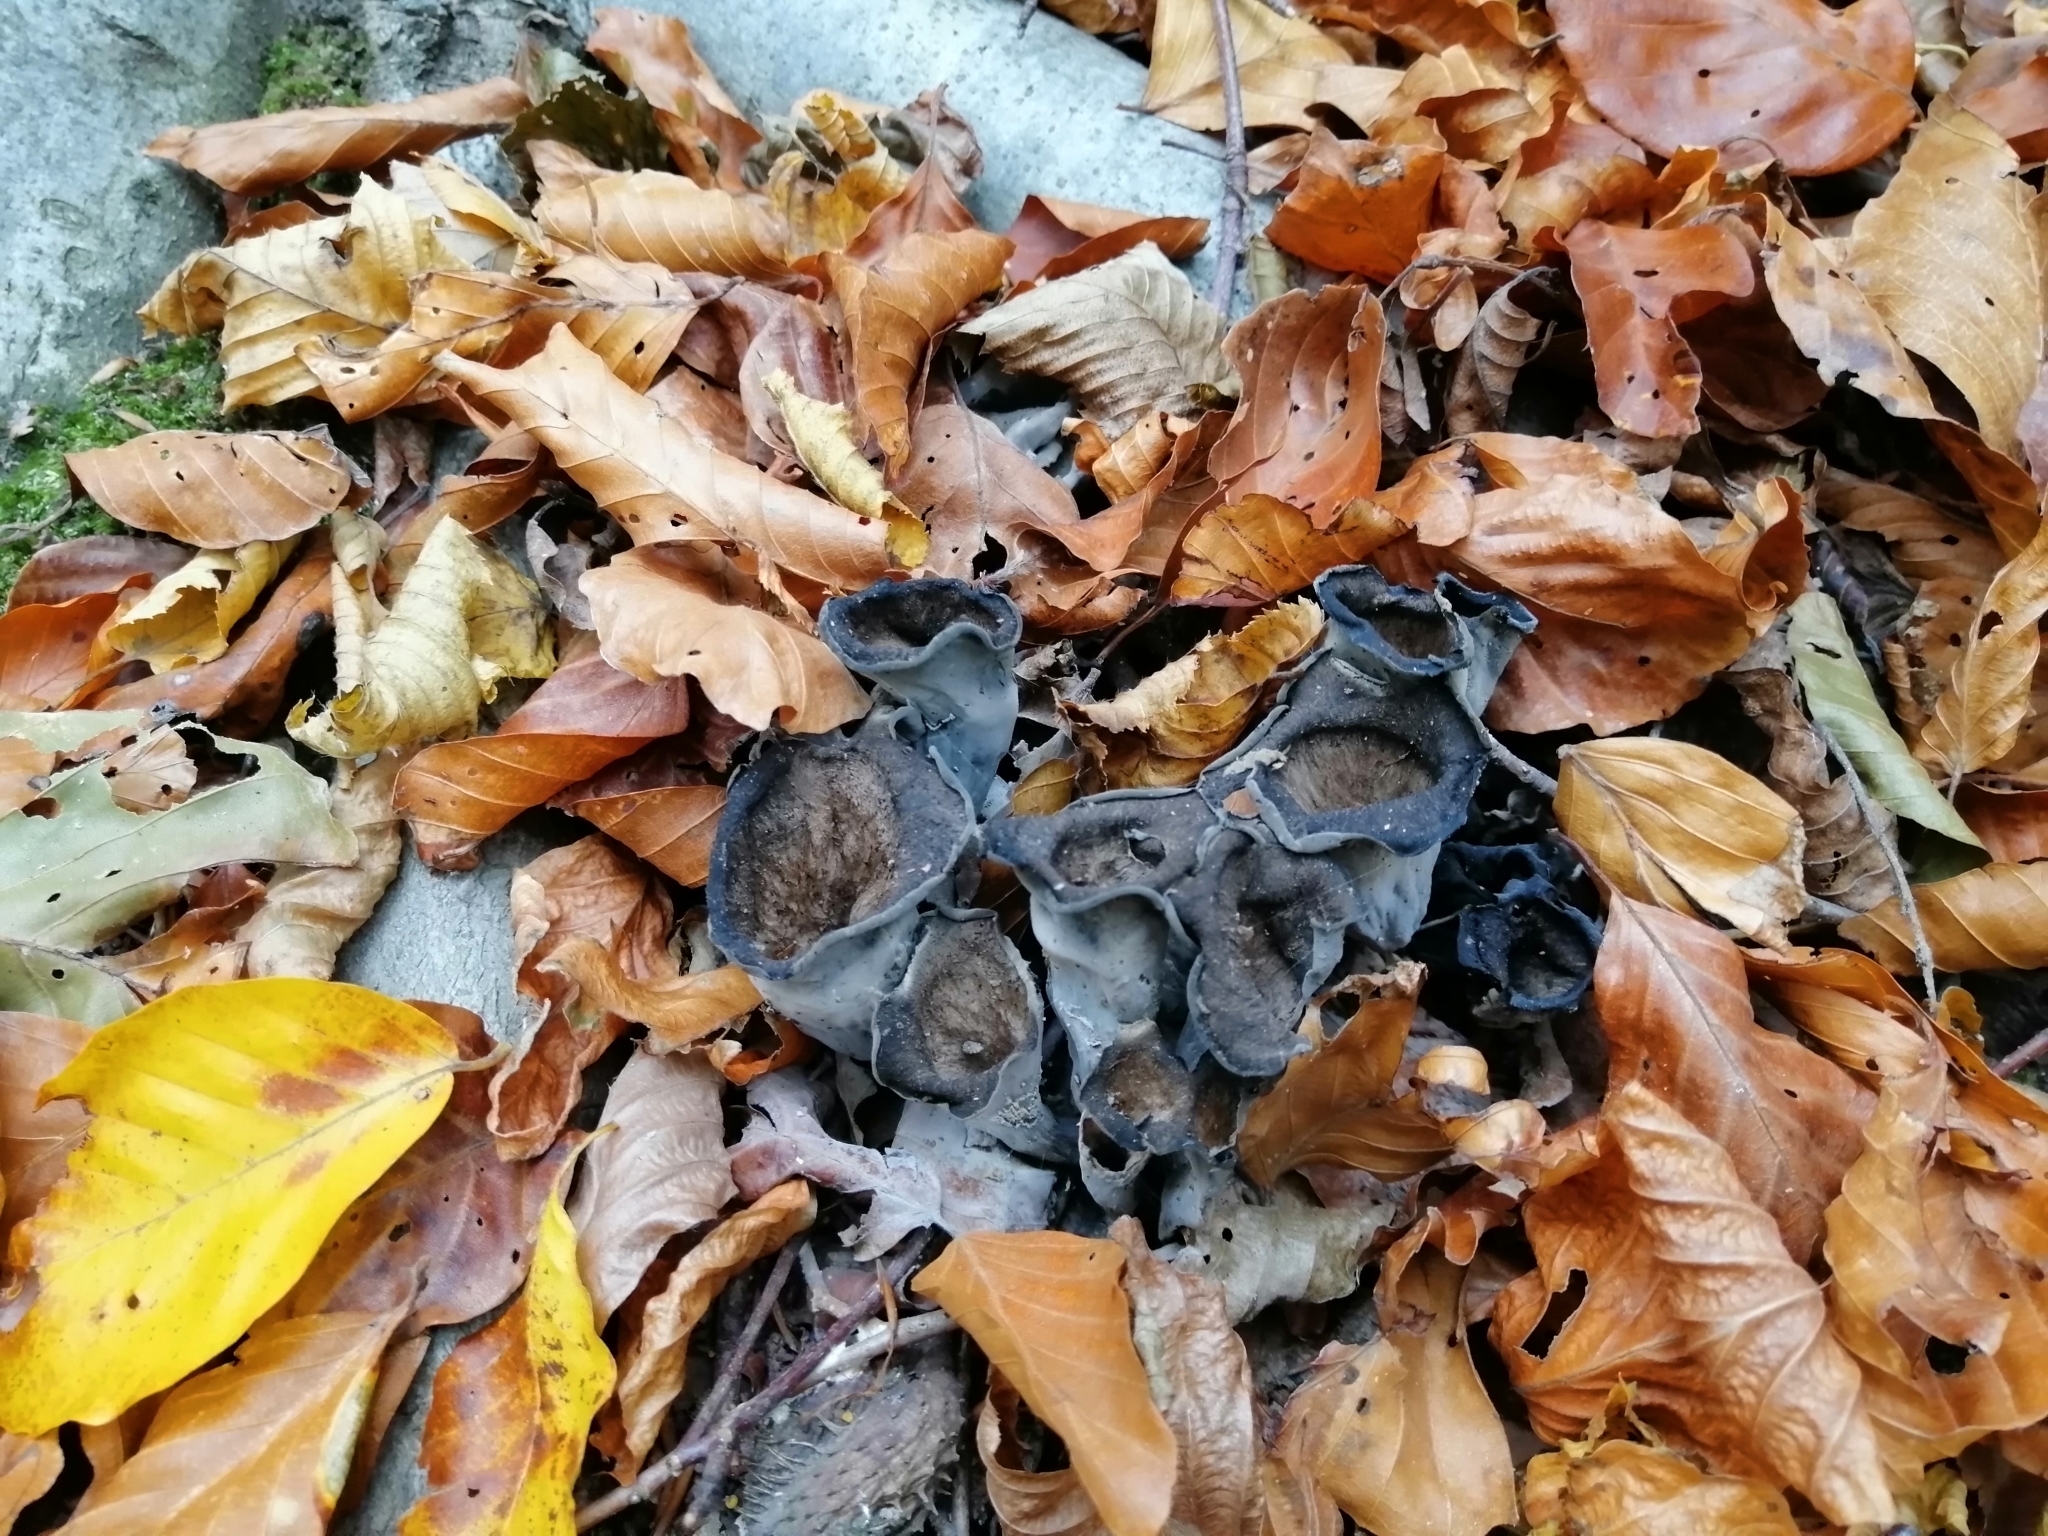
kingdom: Fungi
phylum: Basidiomycota
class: Agaricomycetes
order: Cantharellales
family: Hydnaceae
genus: Craterellus
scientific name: Craterellus cornucopioides
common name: Horn of plenty
